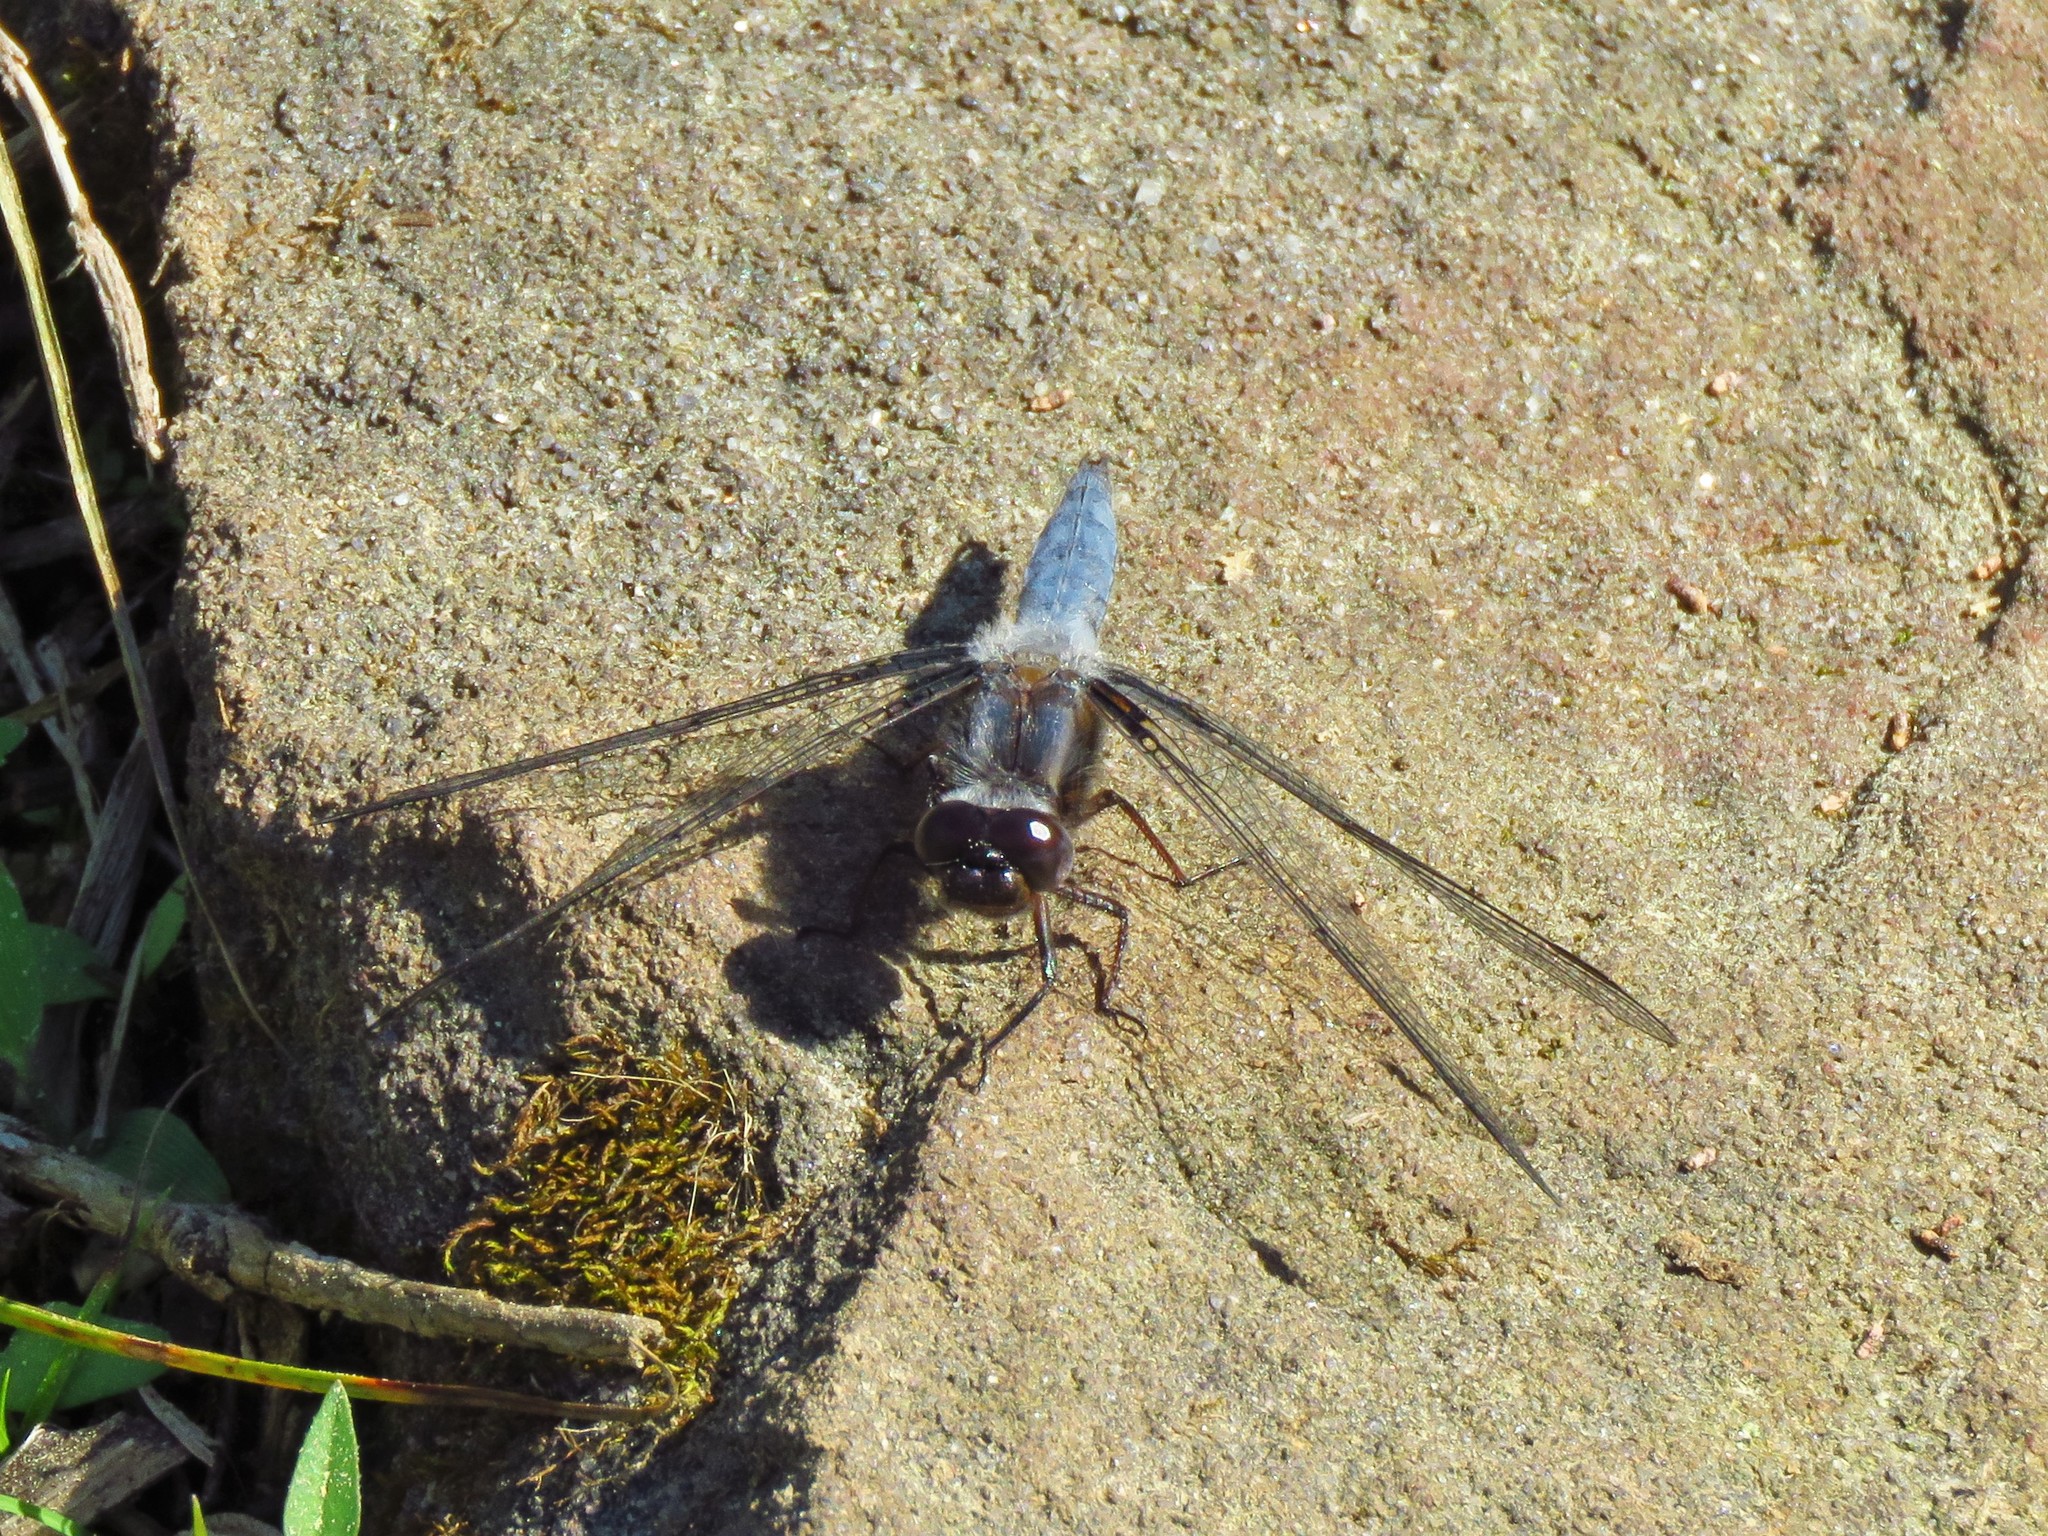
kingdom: Animalia
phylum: Arthropoda
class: Insecta
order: Odonata
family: Libellulidae
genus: Ladona
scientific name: Ladona deplanata
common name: Blue corporal
